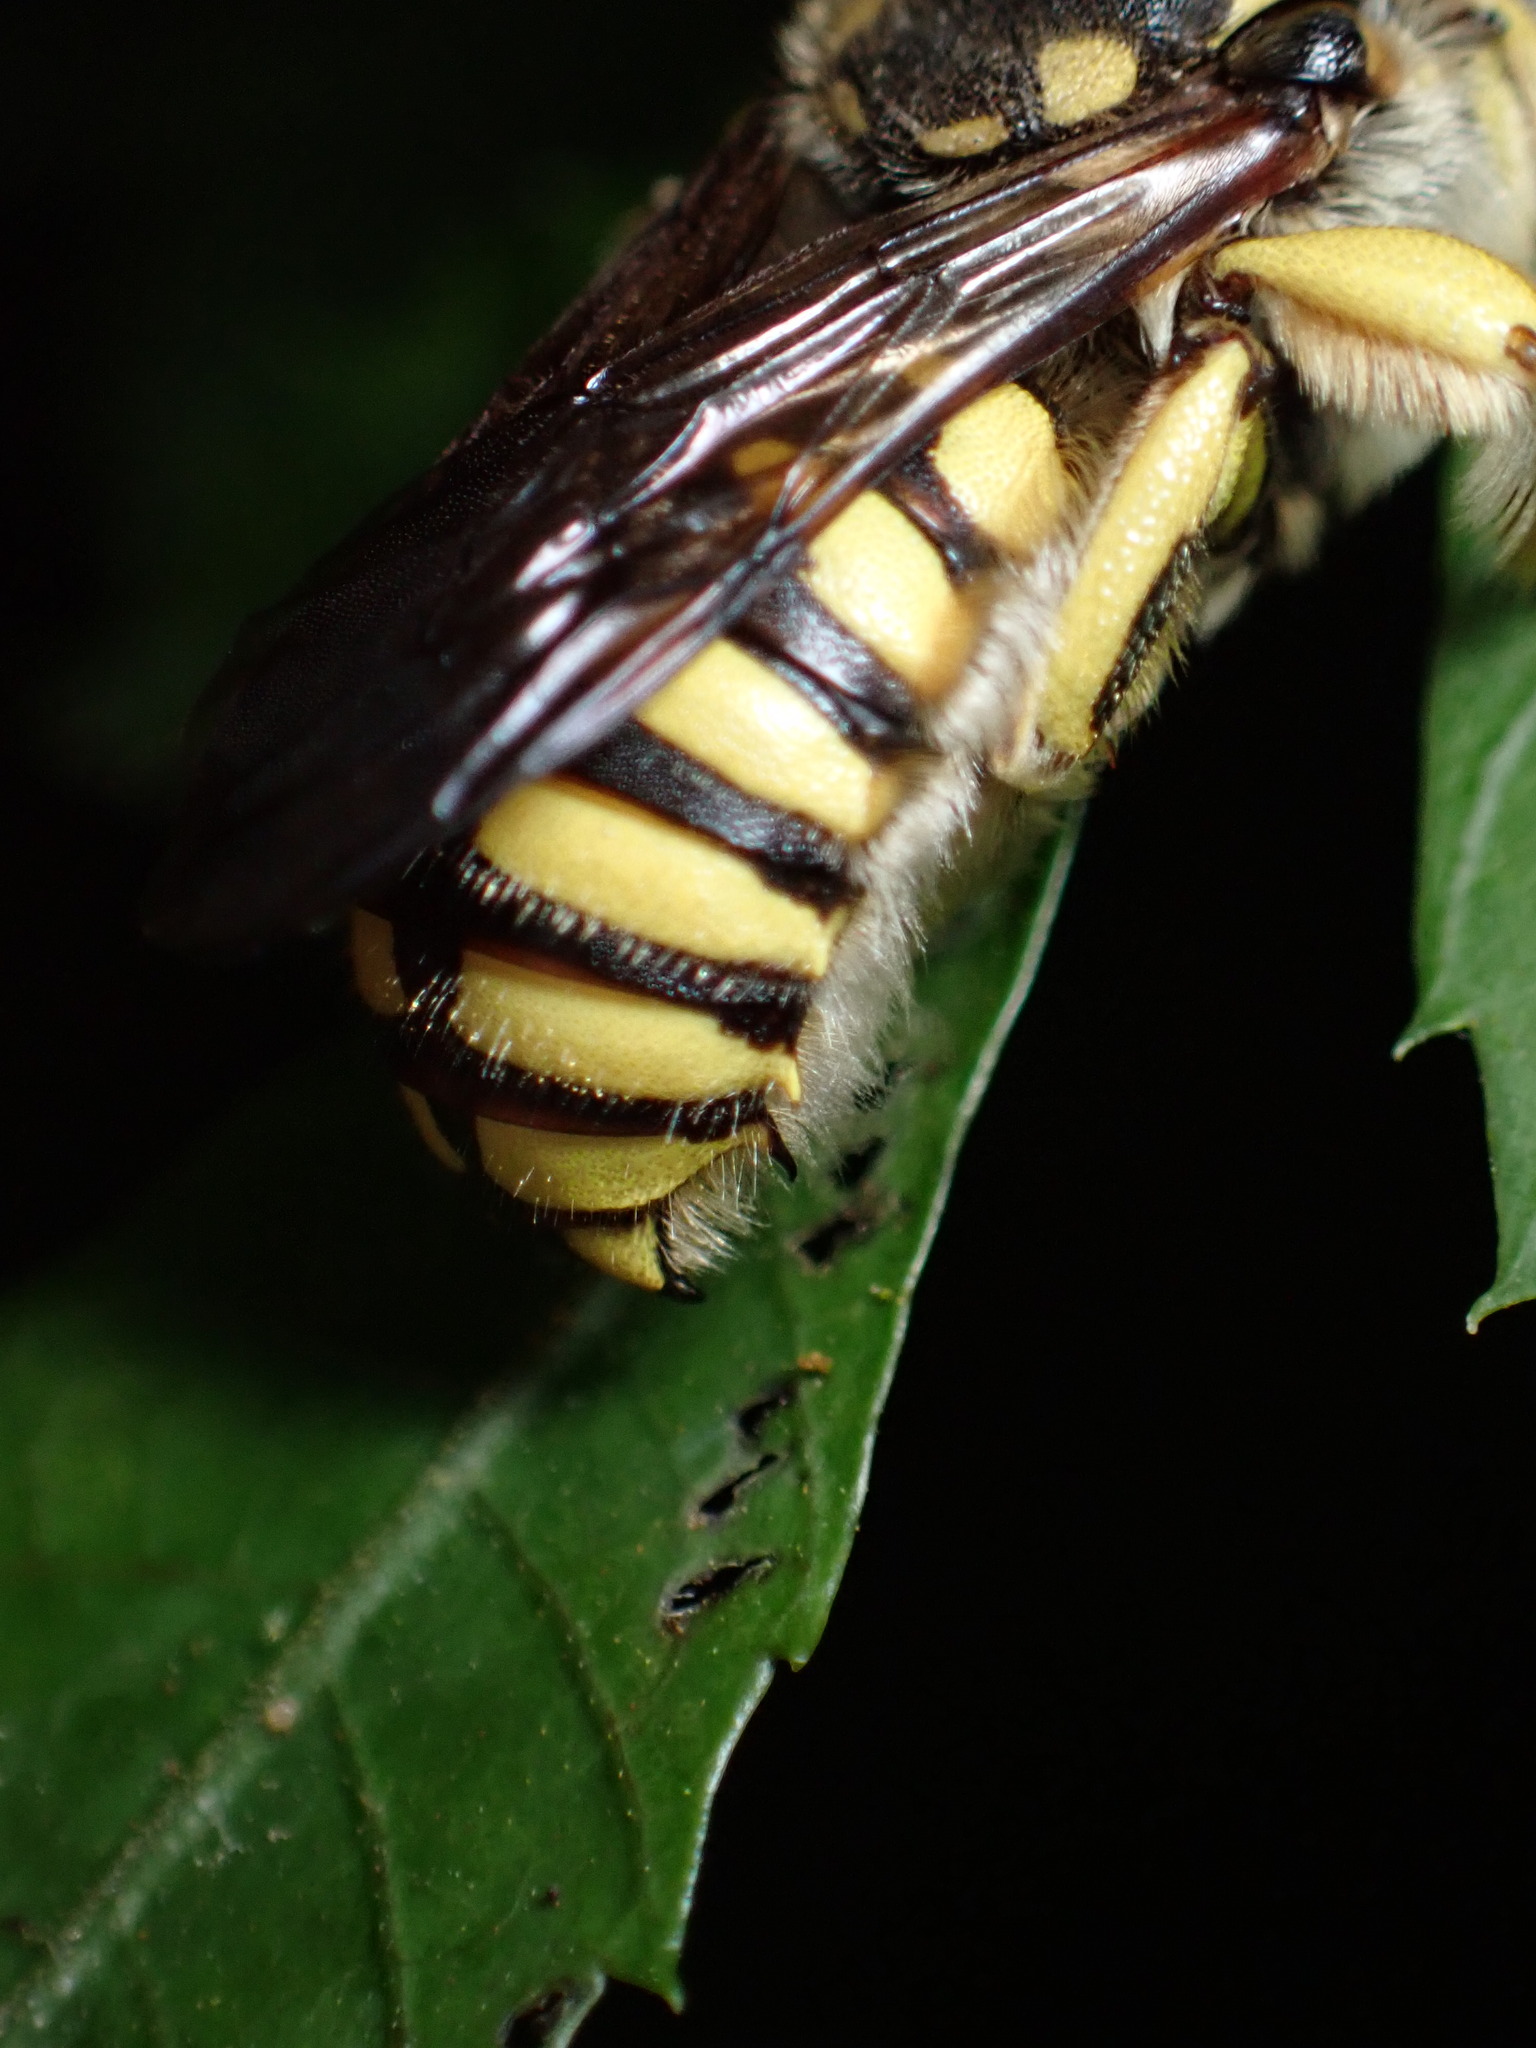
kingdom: Animalia
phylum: Arthropoda
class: Insecta
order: Hymenoptera
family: Megachilidae
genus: Anthidium
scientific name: Anthidium florentinum
